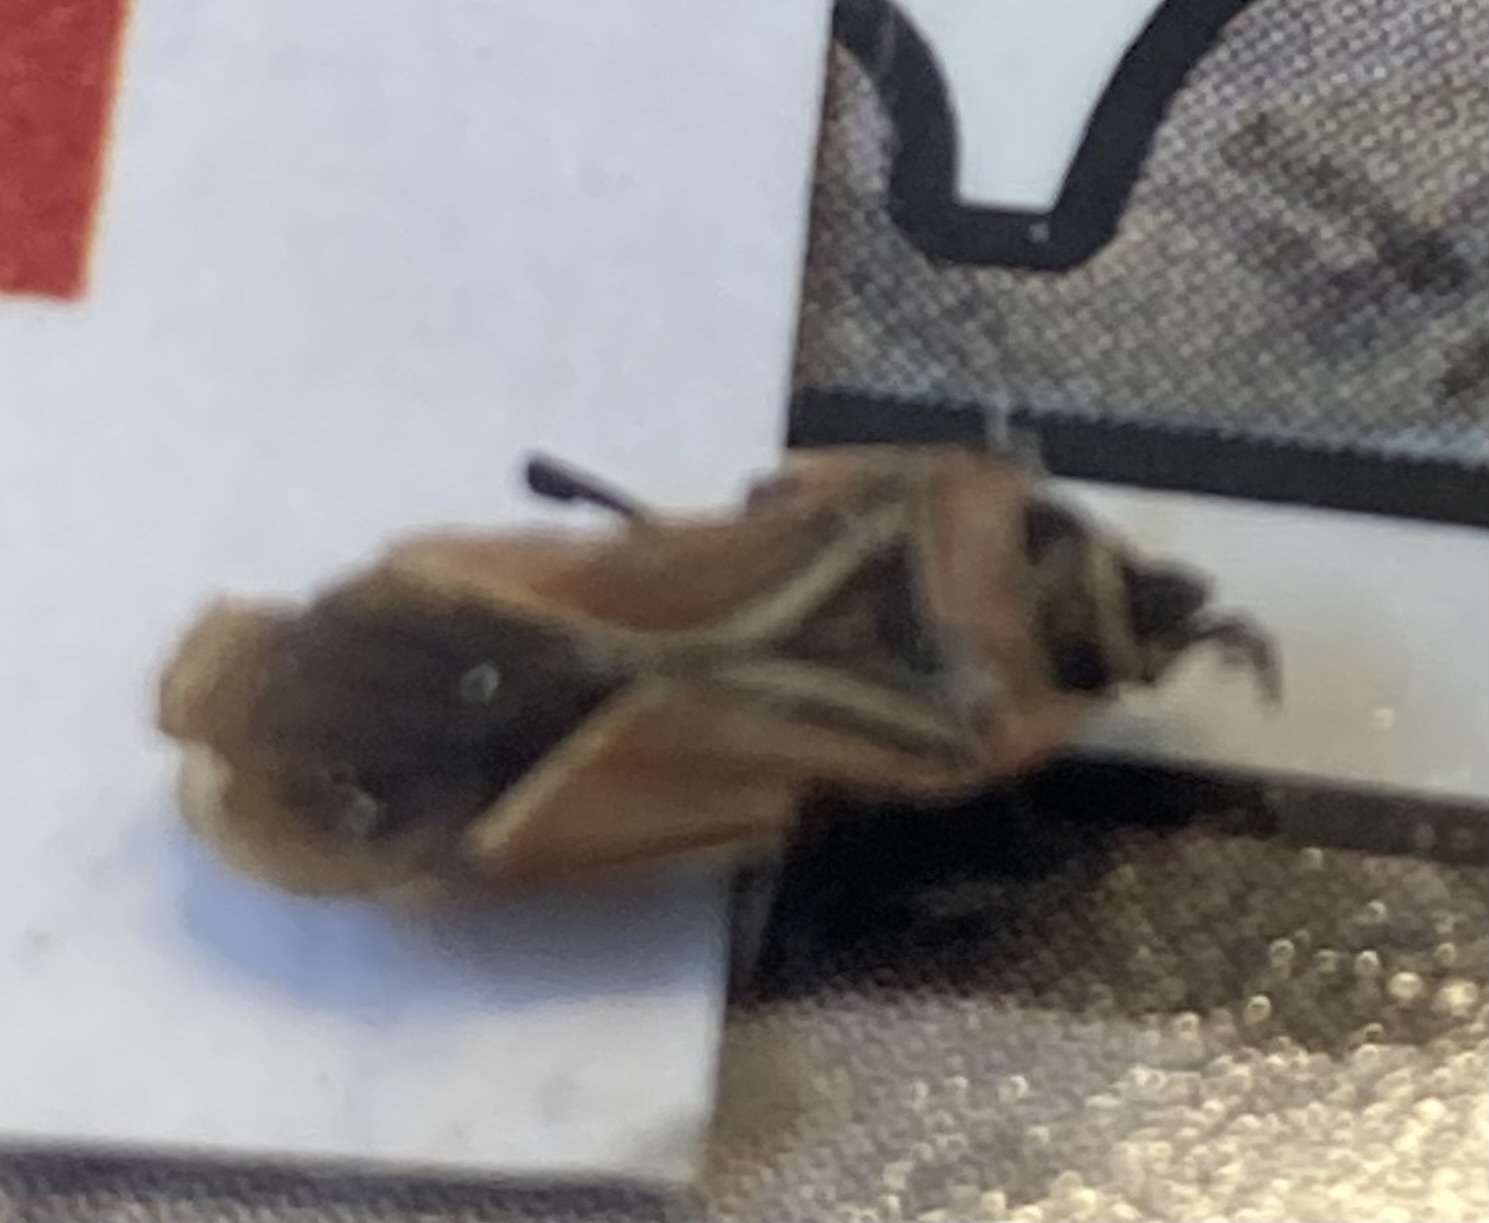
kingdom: Animalia
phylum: Arthropoda
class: Insecta
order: Hemiptera
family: Lygaeidae
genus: Neacoryphus
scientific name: Neacoryphus bicrucis
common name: Lygaeid bug
